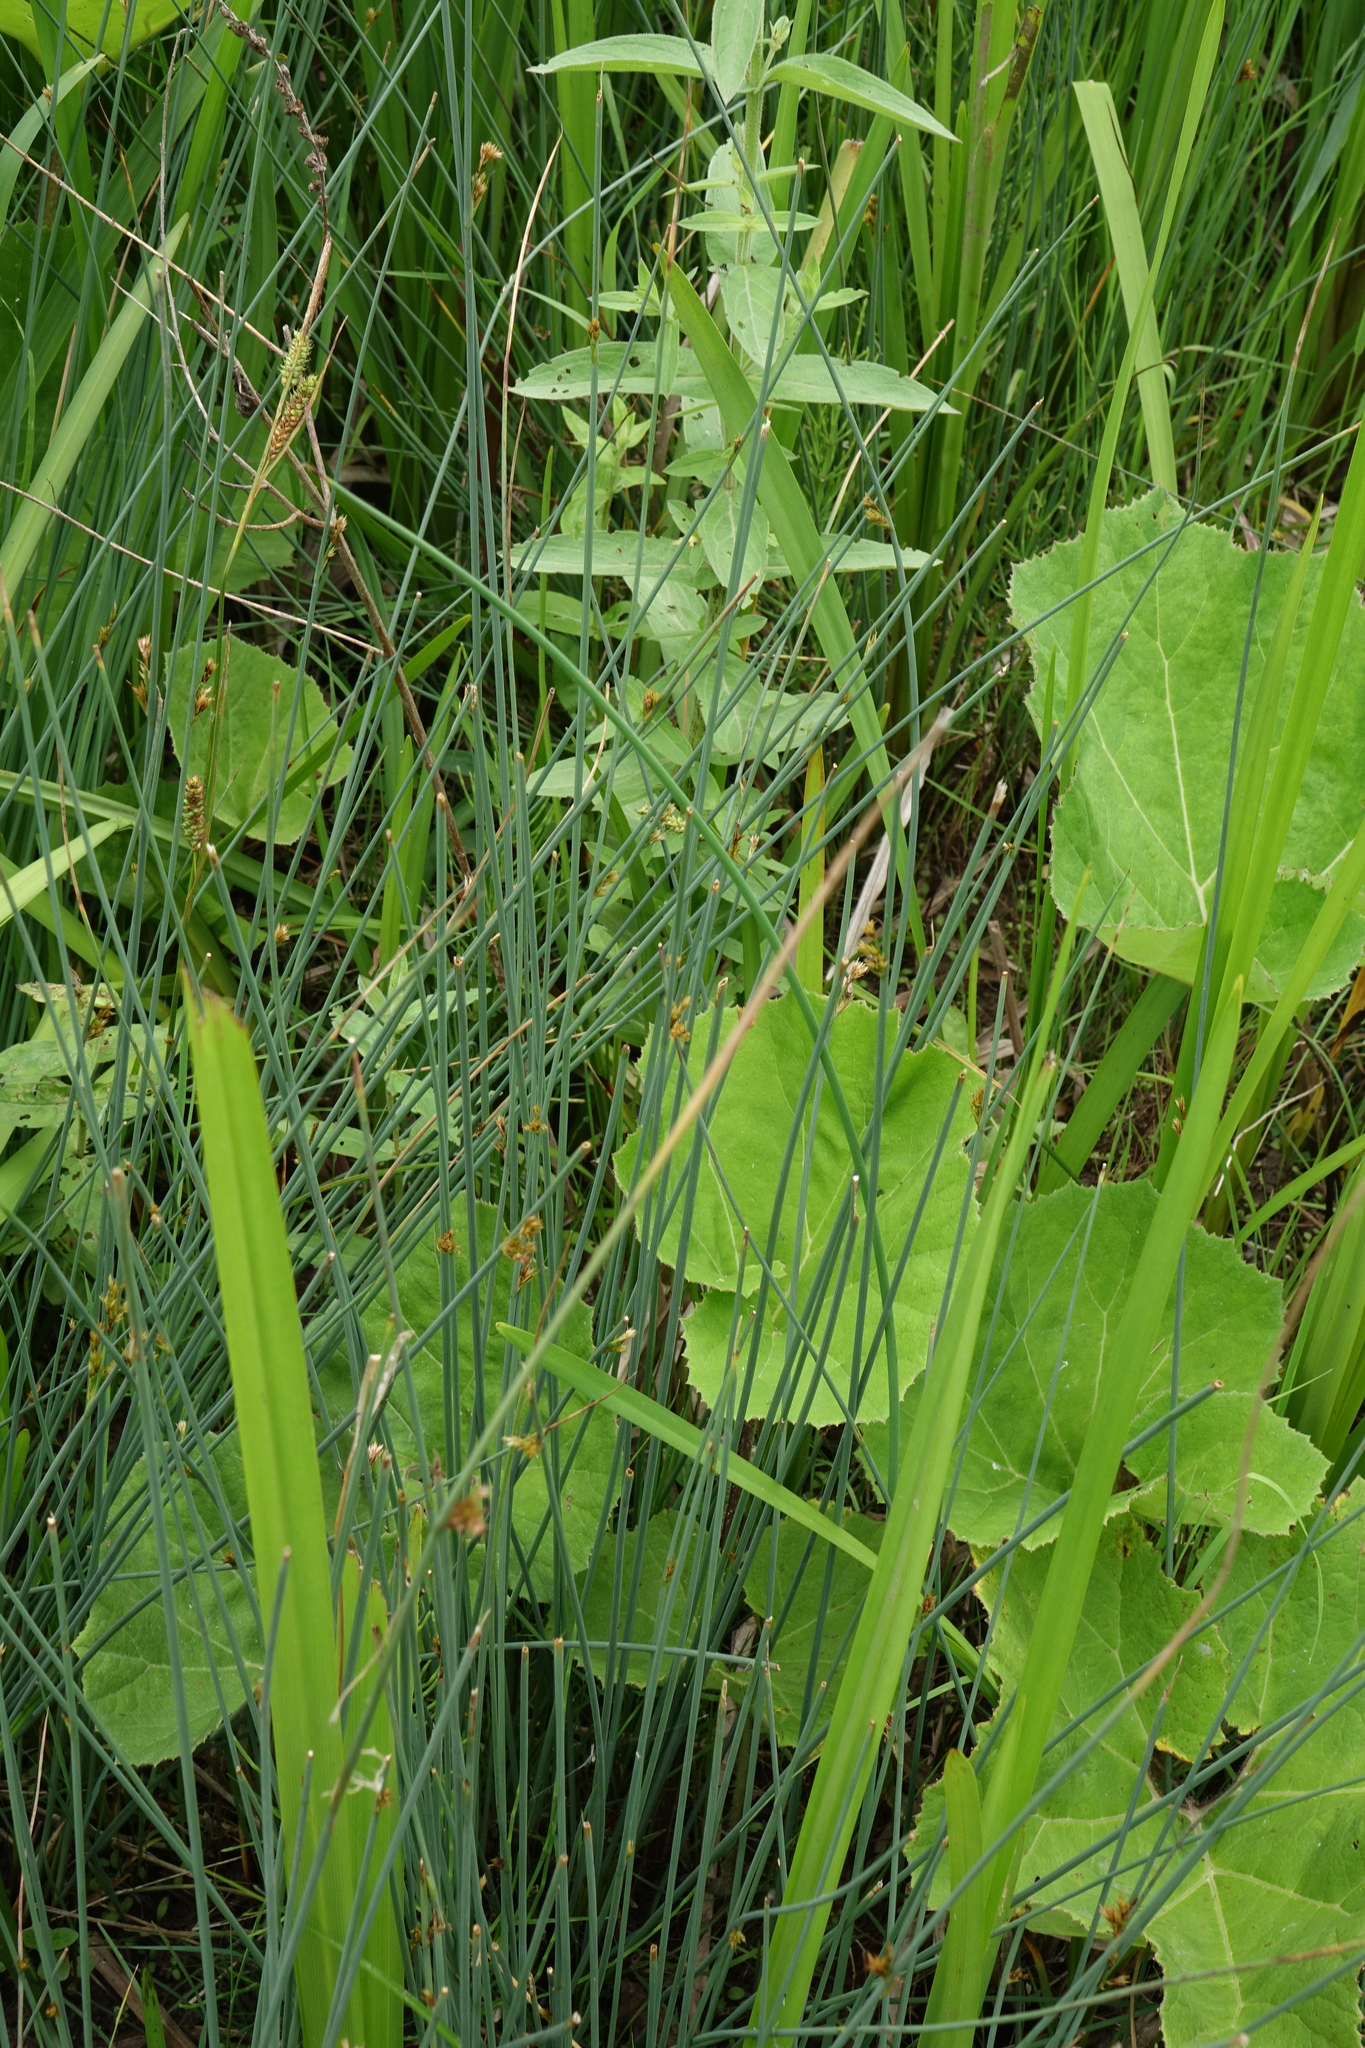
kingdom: Plantae
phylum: Tracheophyta
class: Liliopsida
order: Poales
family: Juncaceae
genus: Juncus
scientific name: Juncus inflexus
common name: Hard rush
